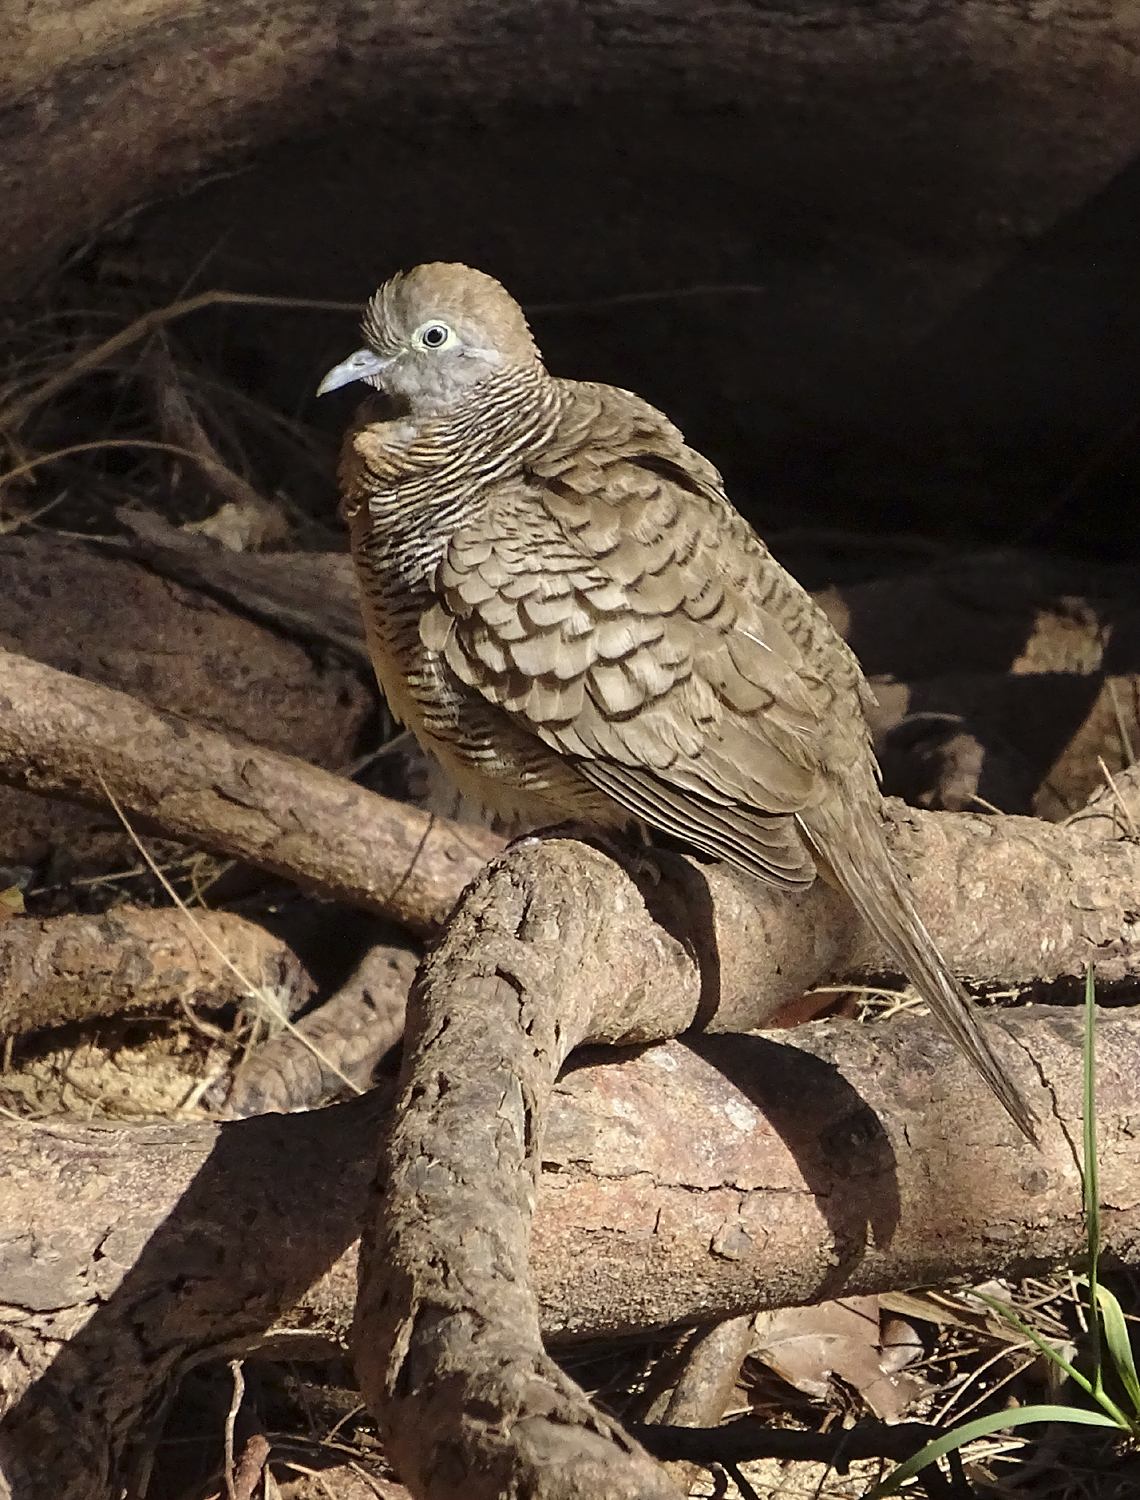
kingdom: Animalia
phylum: Chordata
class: Aves
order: Columbiformes
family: Columbidae
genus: Geopelia
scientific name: Geopelia striata
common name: Zebra dove
